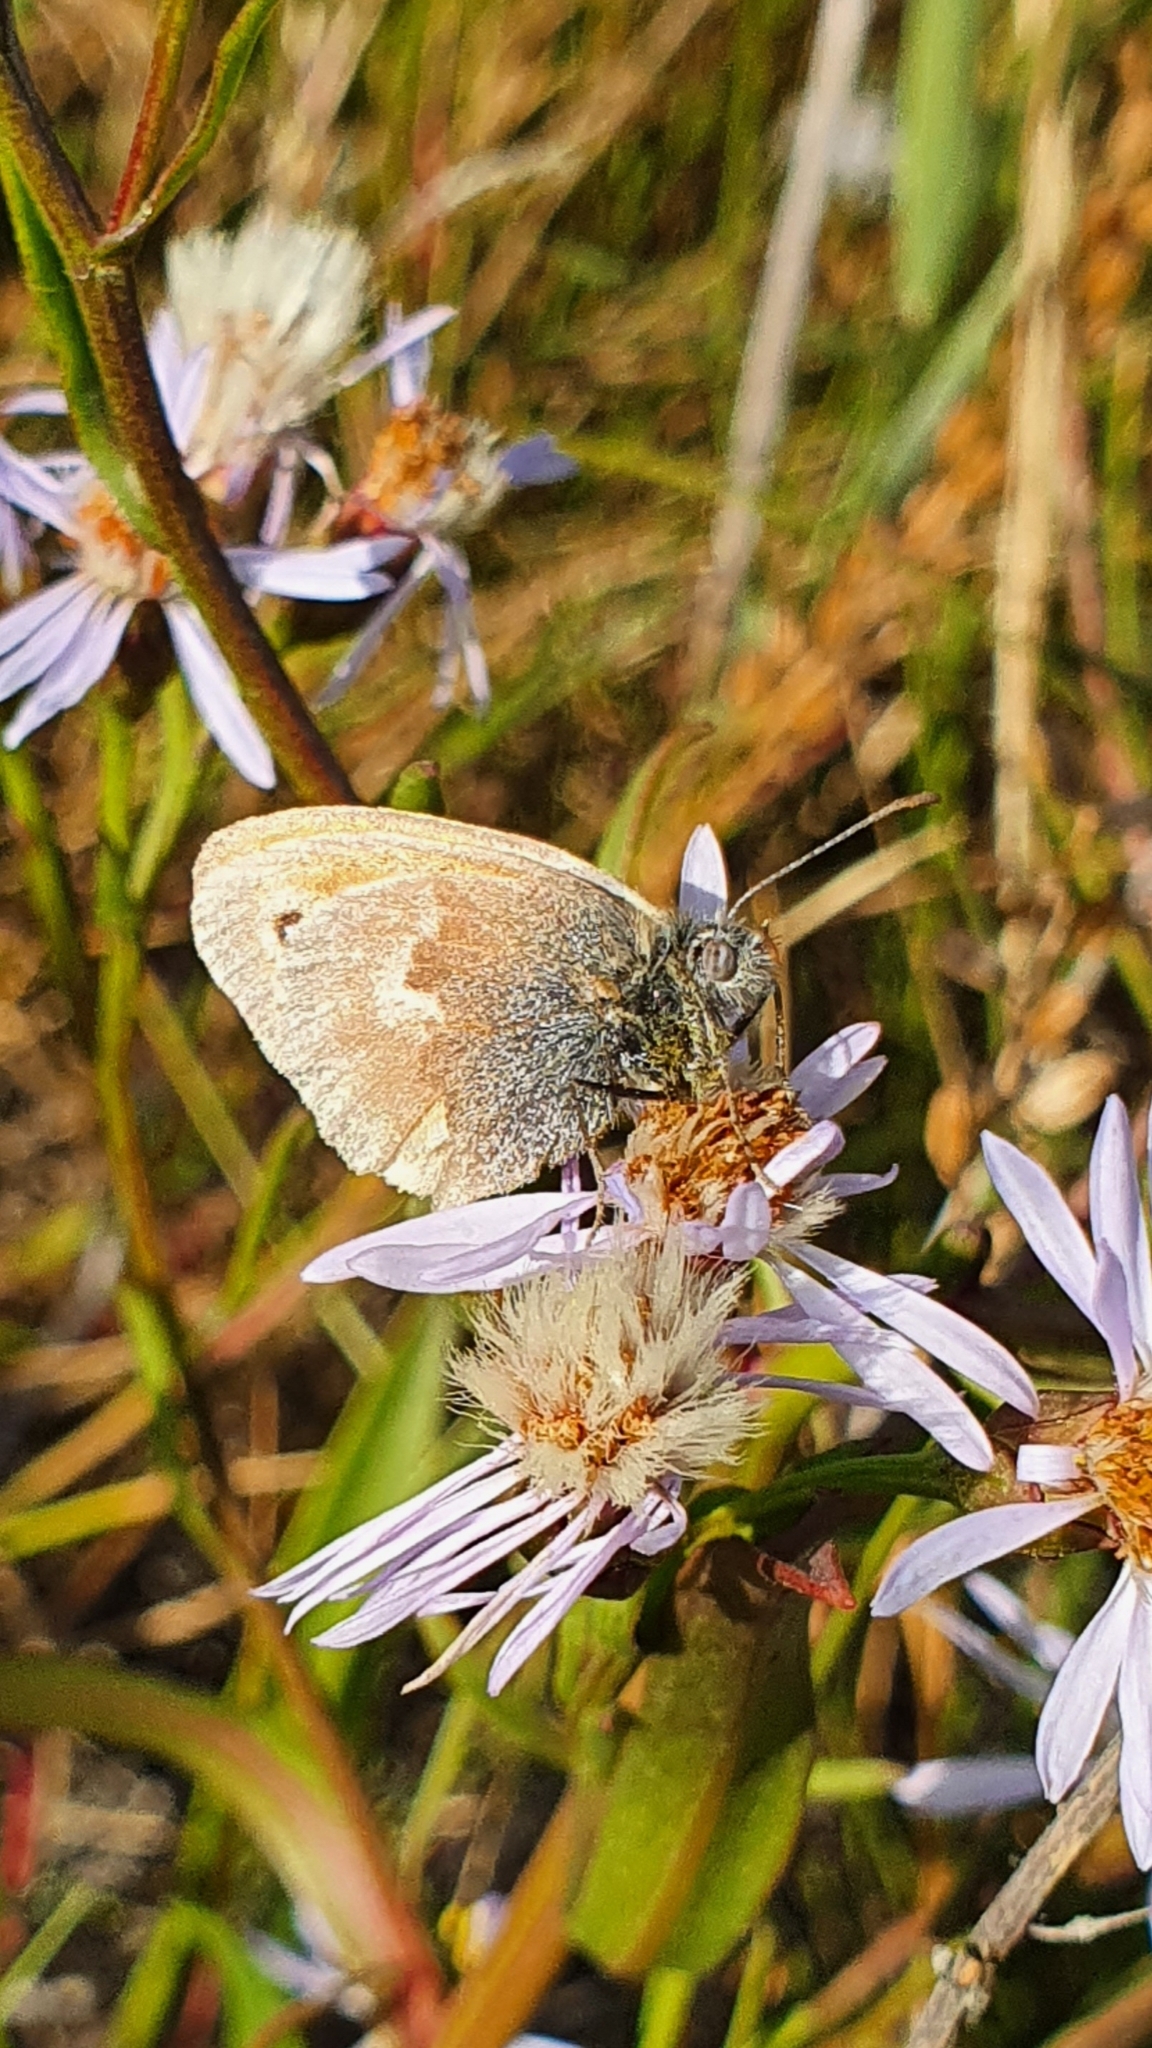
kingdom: Animalia
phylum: Arthropoda
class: Insecta
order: Lepidoptera
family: Nymphalidae
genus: Coenonympha
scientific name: Coenonympha pamphilus
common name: Small heath
